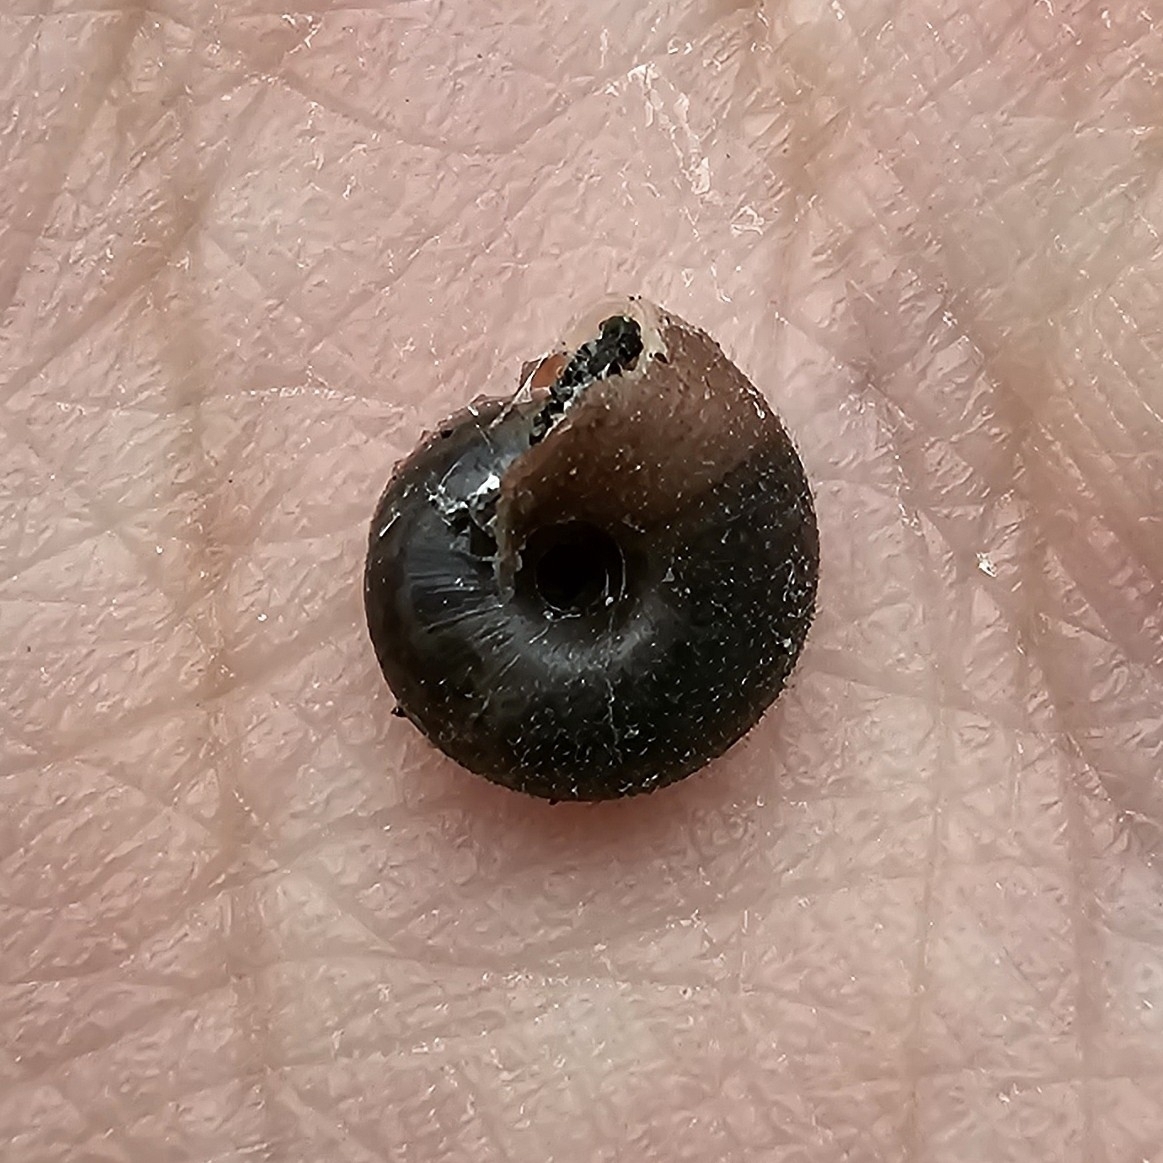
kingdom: Animalia
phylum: Mollusca
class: Gastropoda
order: Stylommatophora
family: Hygromiidae
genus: Trochulus
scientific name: Trochulus hispidus
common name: Hairy snail
